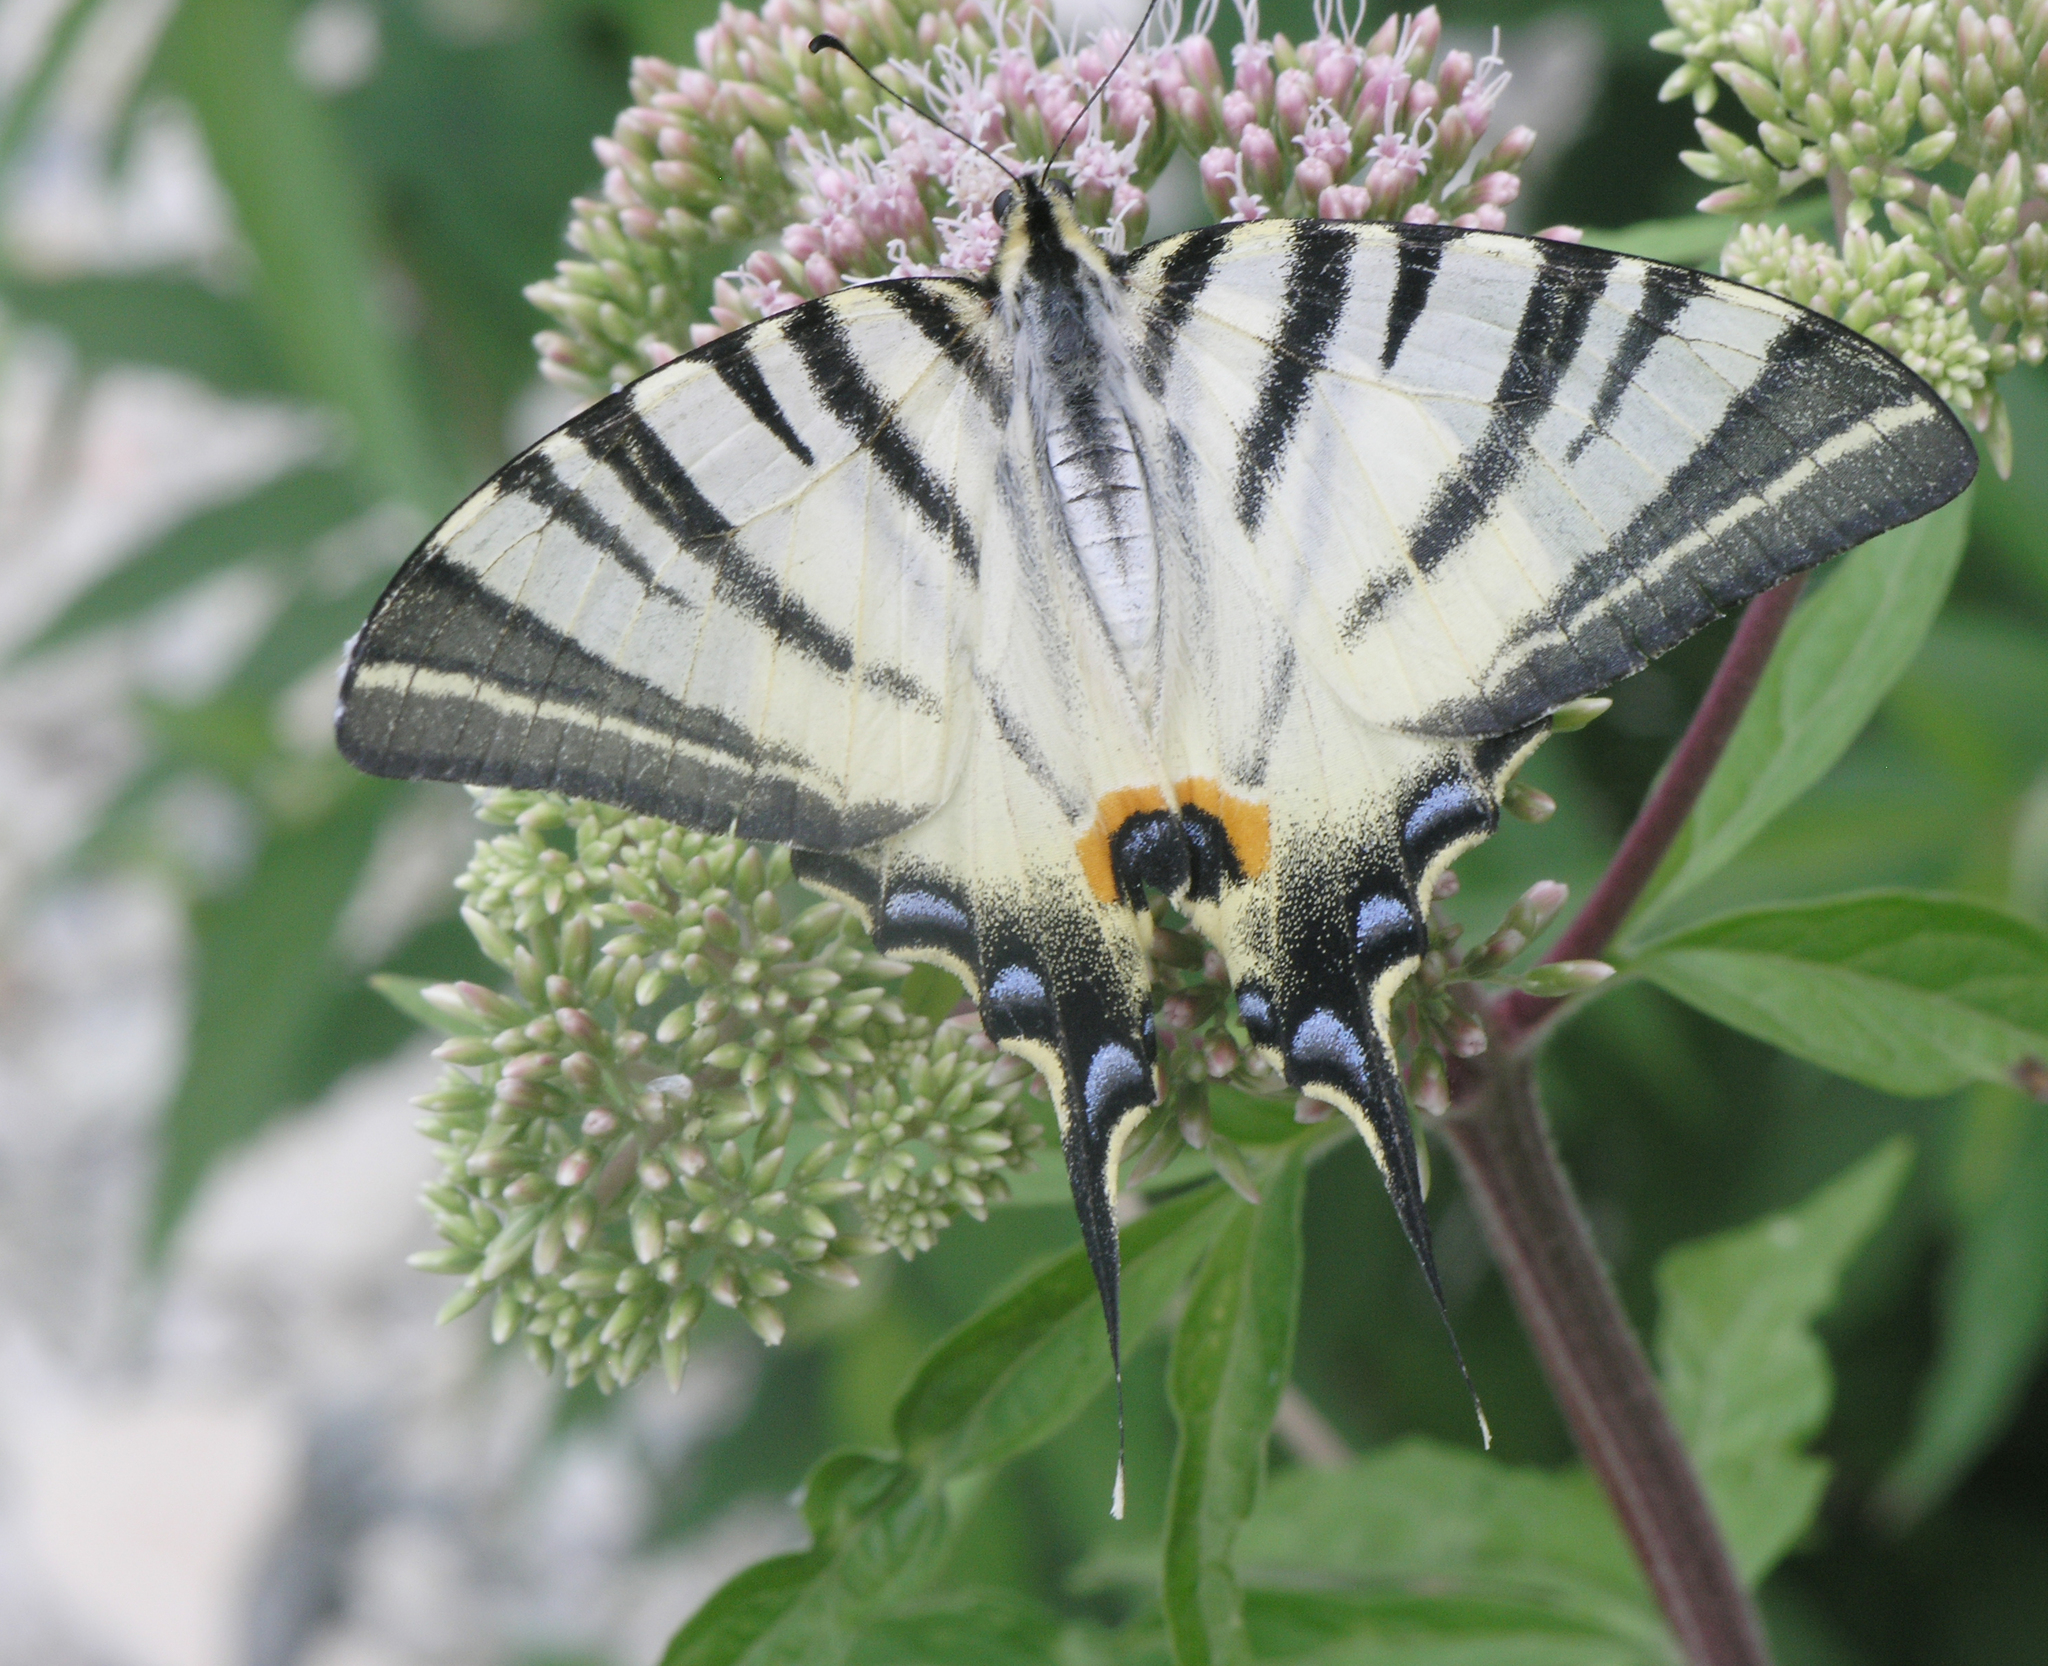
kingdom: Plantae
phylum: Tracheophyta
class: Magnoliopsida
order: Asterales
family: Asteraceae
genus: Eupatorium
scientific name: Eupatorium cannabinum
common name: Hemp-agrimony
